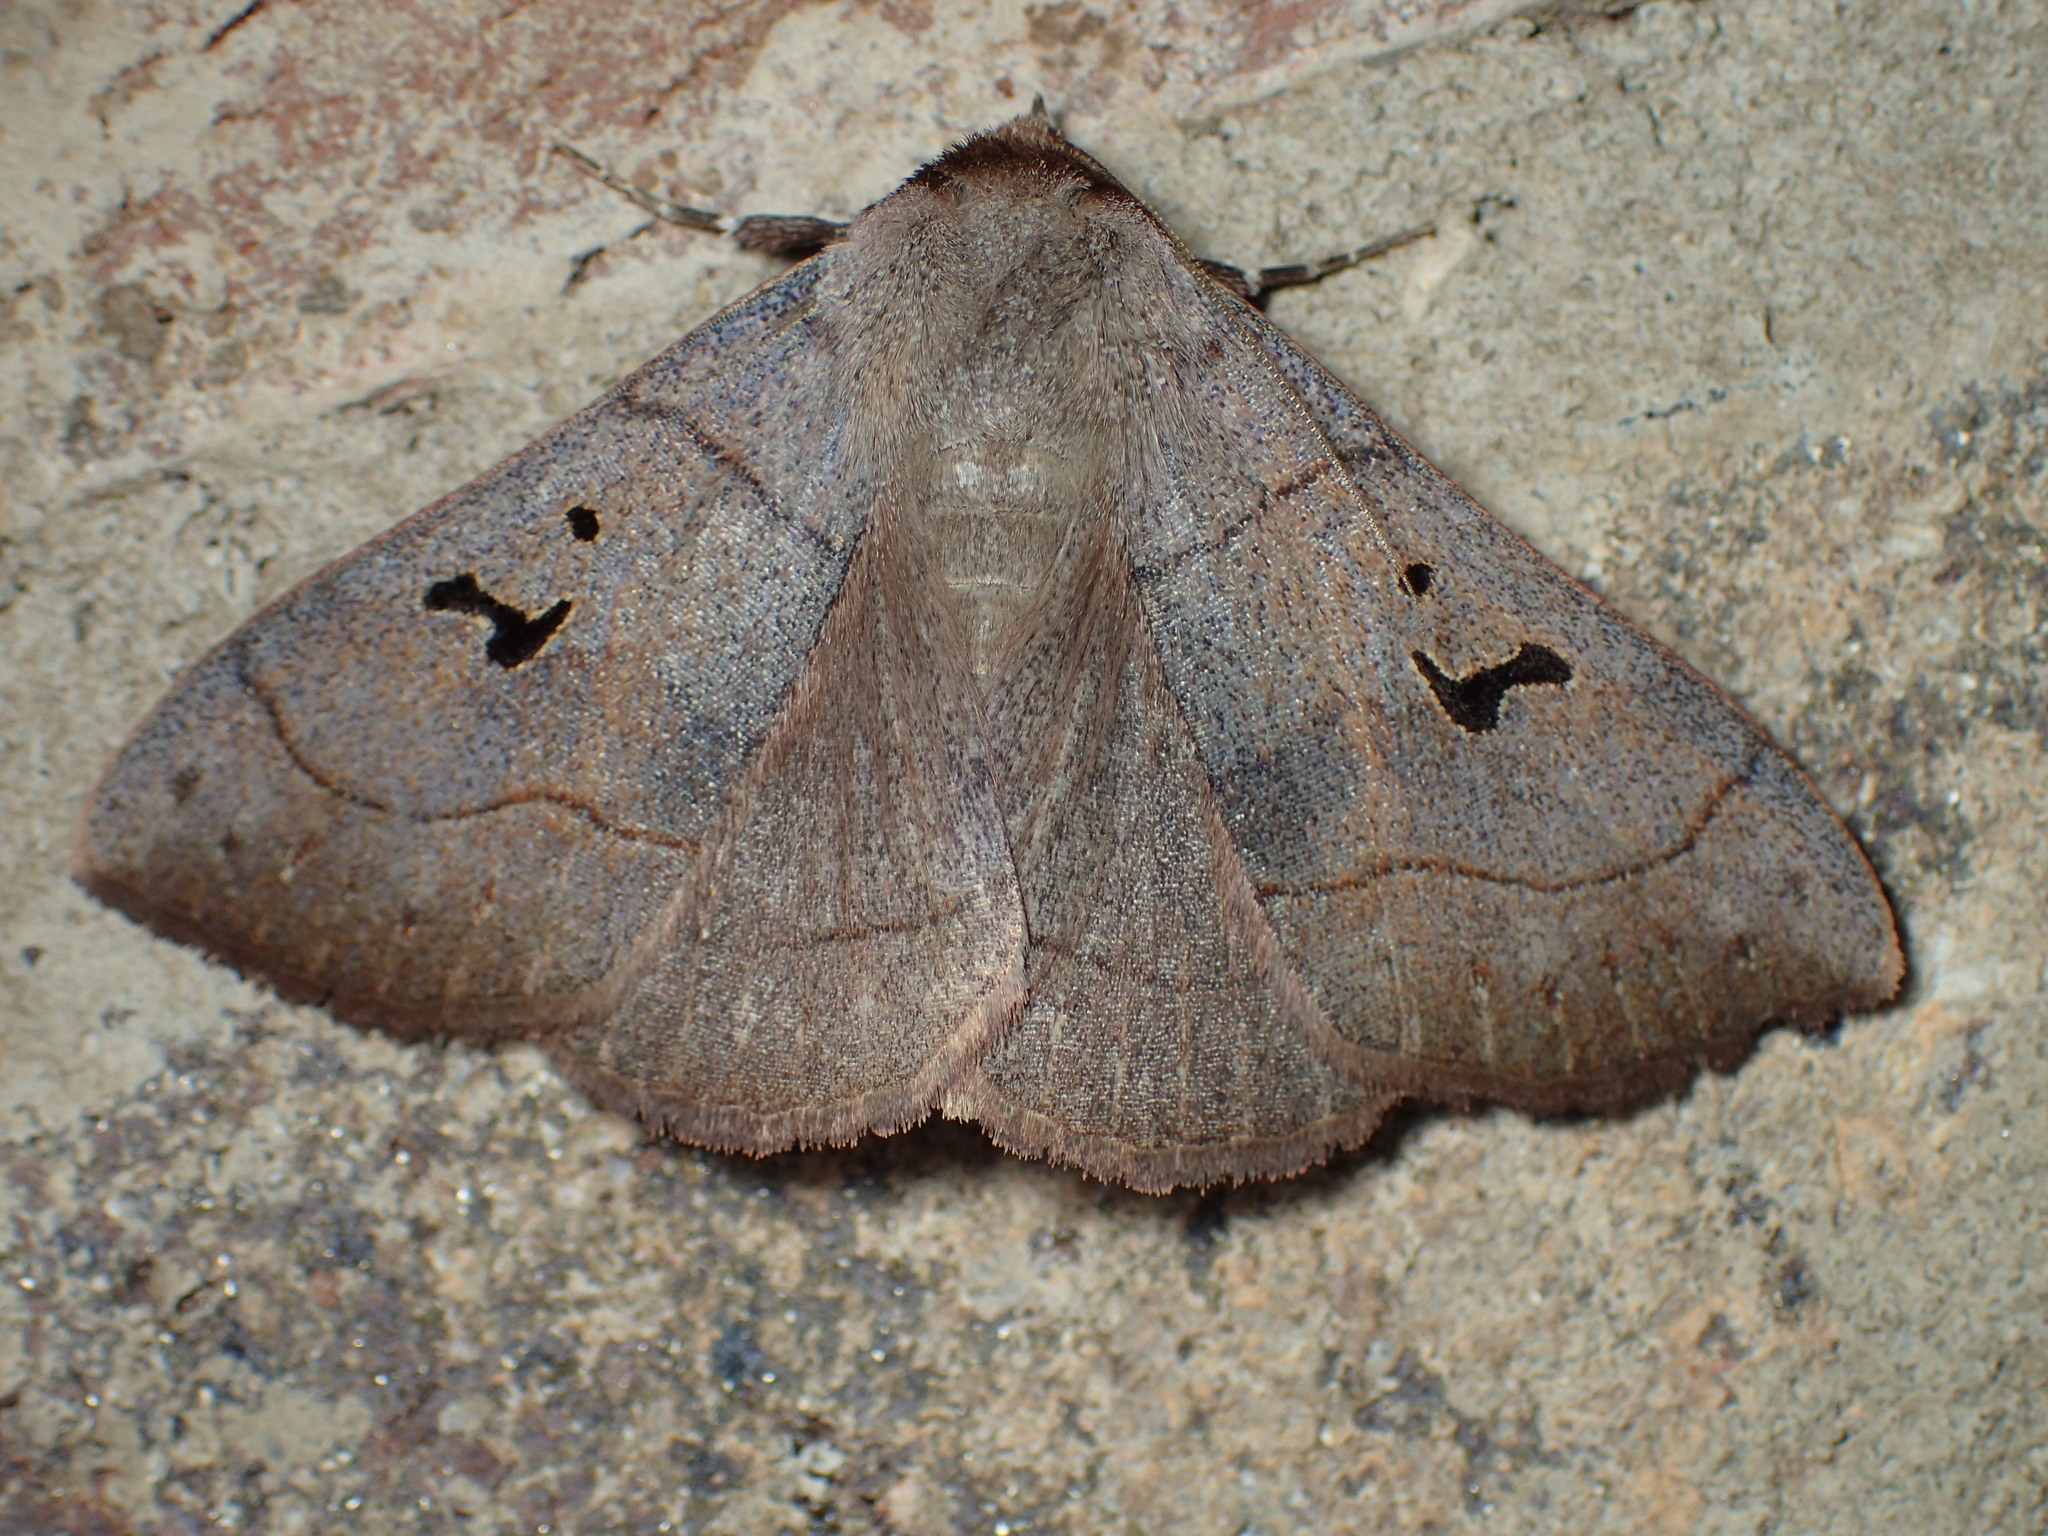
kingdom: Animalia
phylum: Arthropoda
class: Insecta
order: Lepidoptera
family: Erebidae
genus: Panopoda
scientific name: Panopoda carneicosta
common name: Brown panopoda moth
